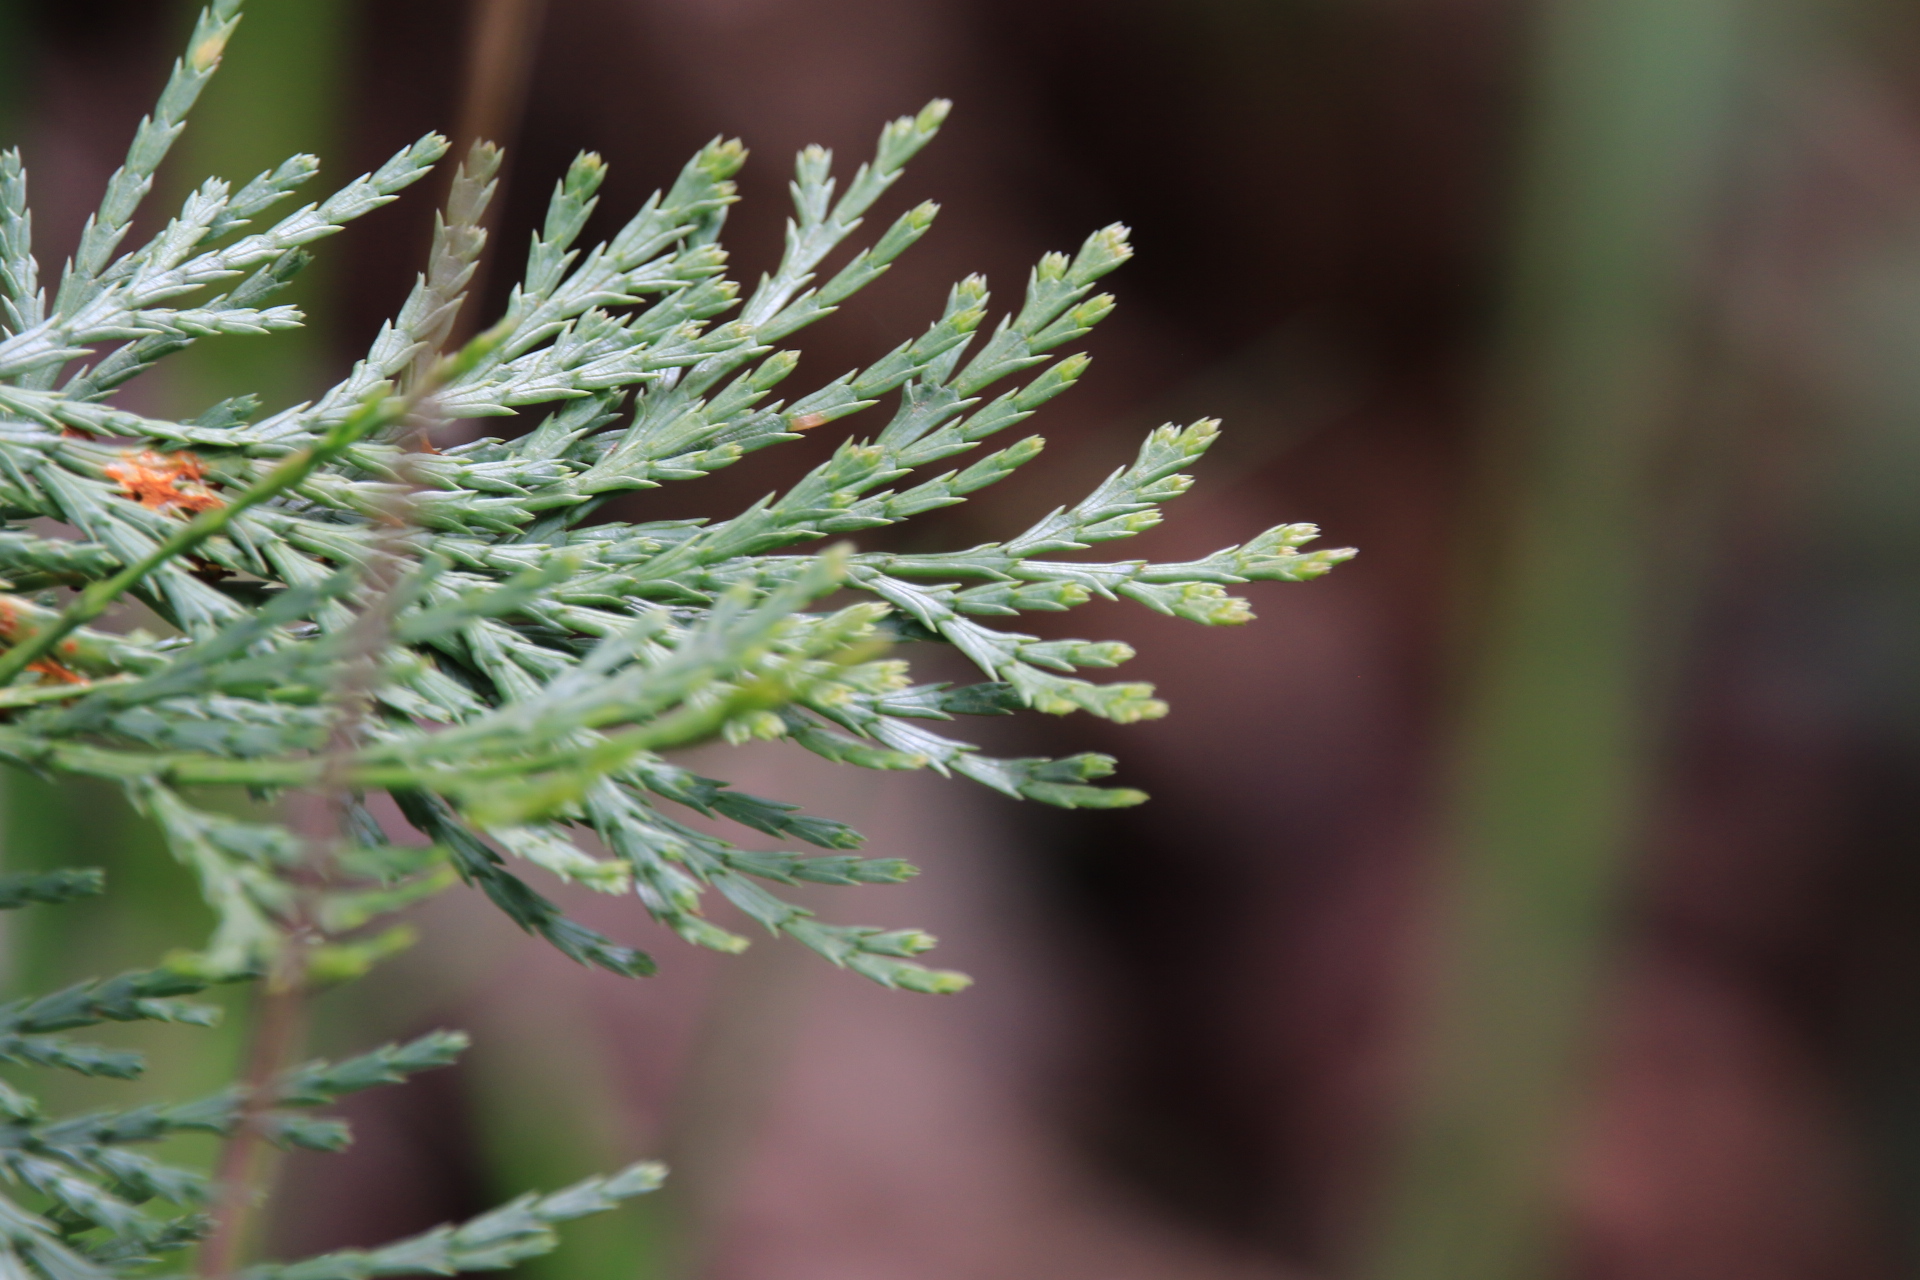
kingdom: Plantae
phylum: Tracheophyta
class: Pinopsida
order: Pinales
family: Cupressaceae
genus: Calocedrus
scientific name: Calocedrus decurrens
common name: Californian incense-cedar
